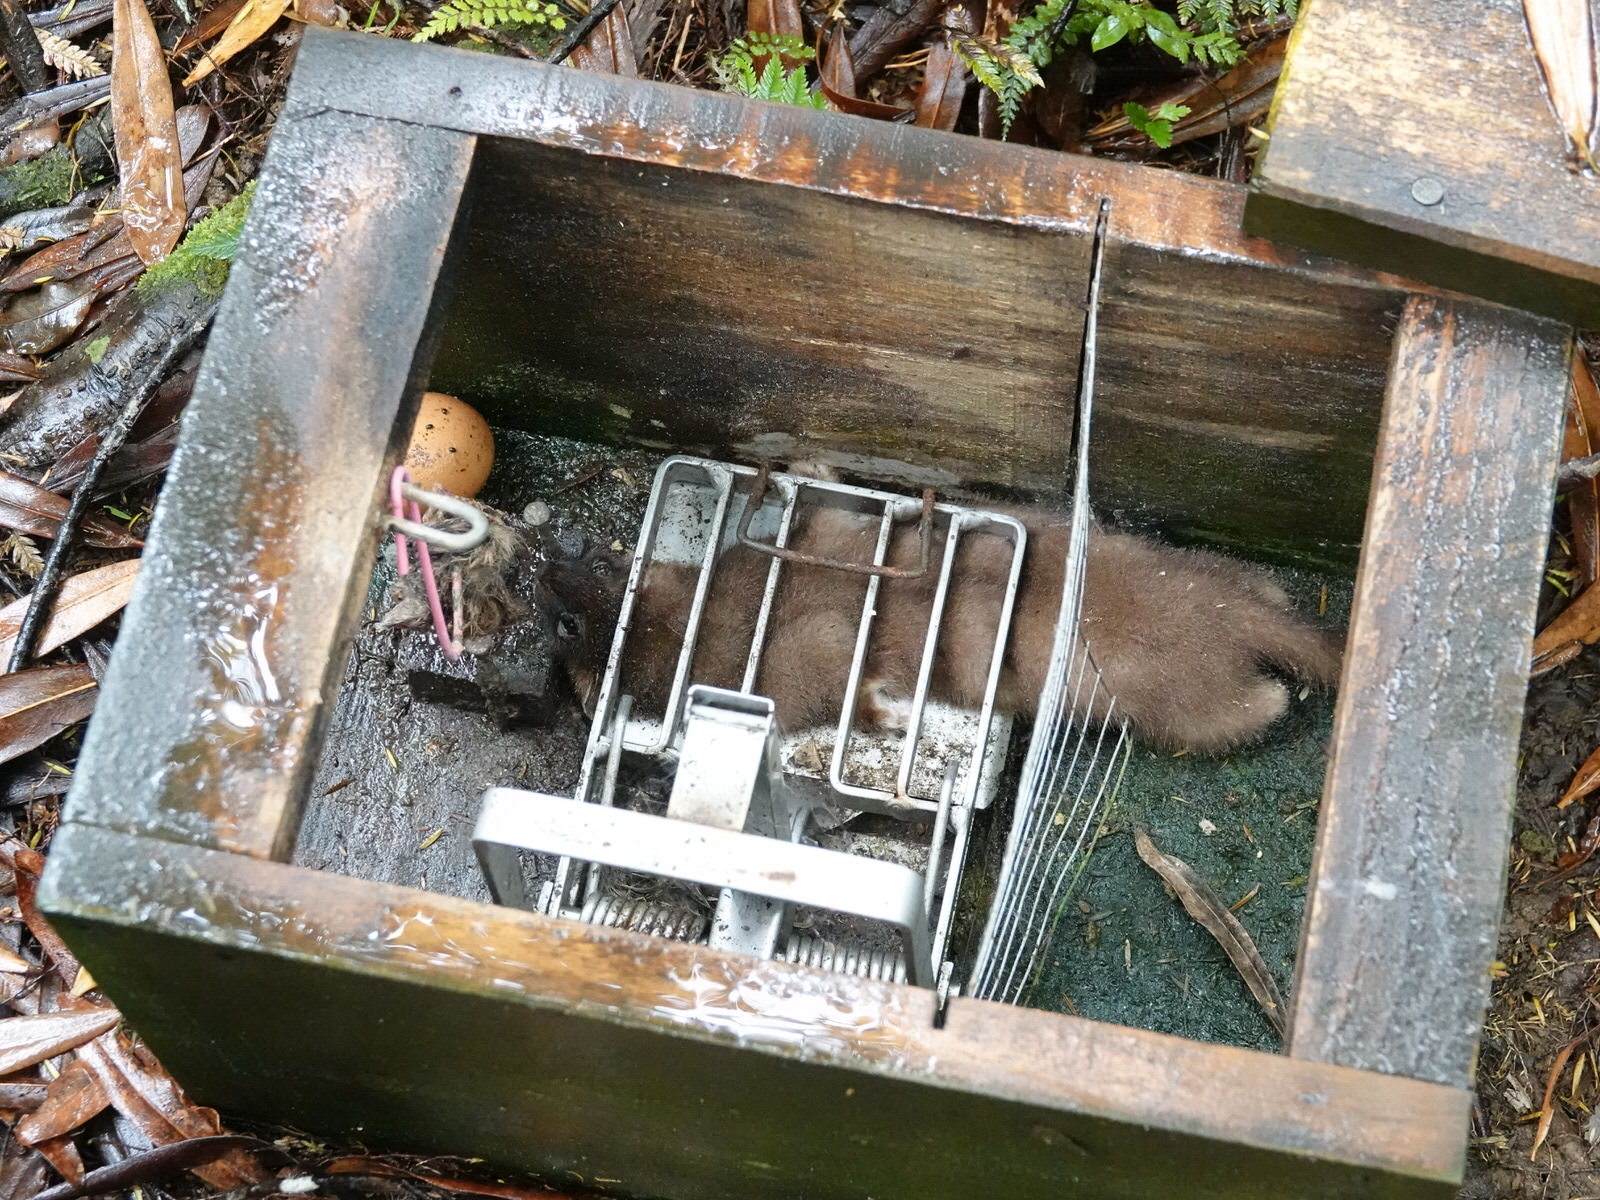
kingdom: Animalia
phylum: Chordata
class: Mammalia
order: Carnivora
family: Mustelidae
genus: Mustela
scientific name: Mustela erminea
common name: Stoat
